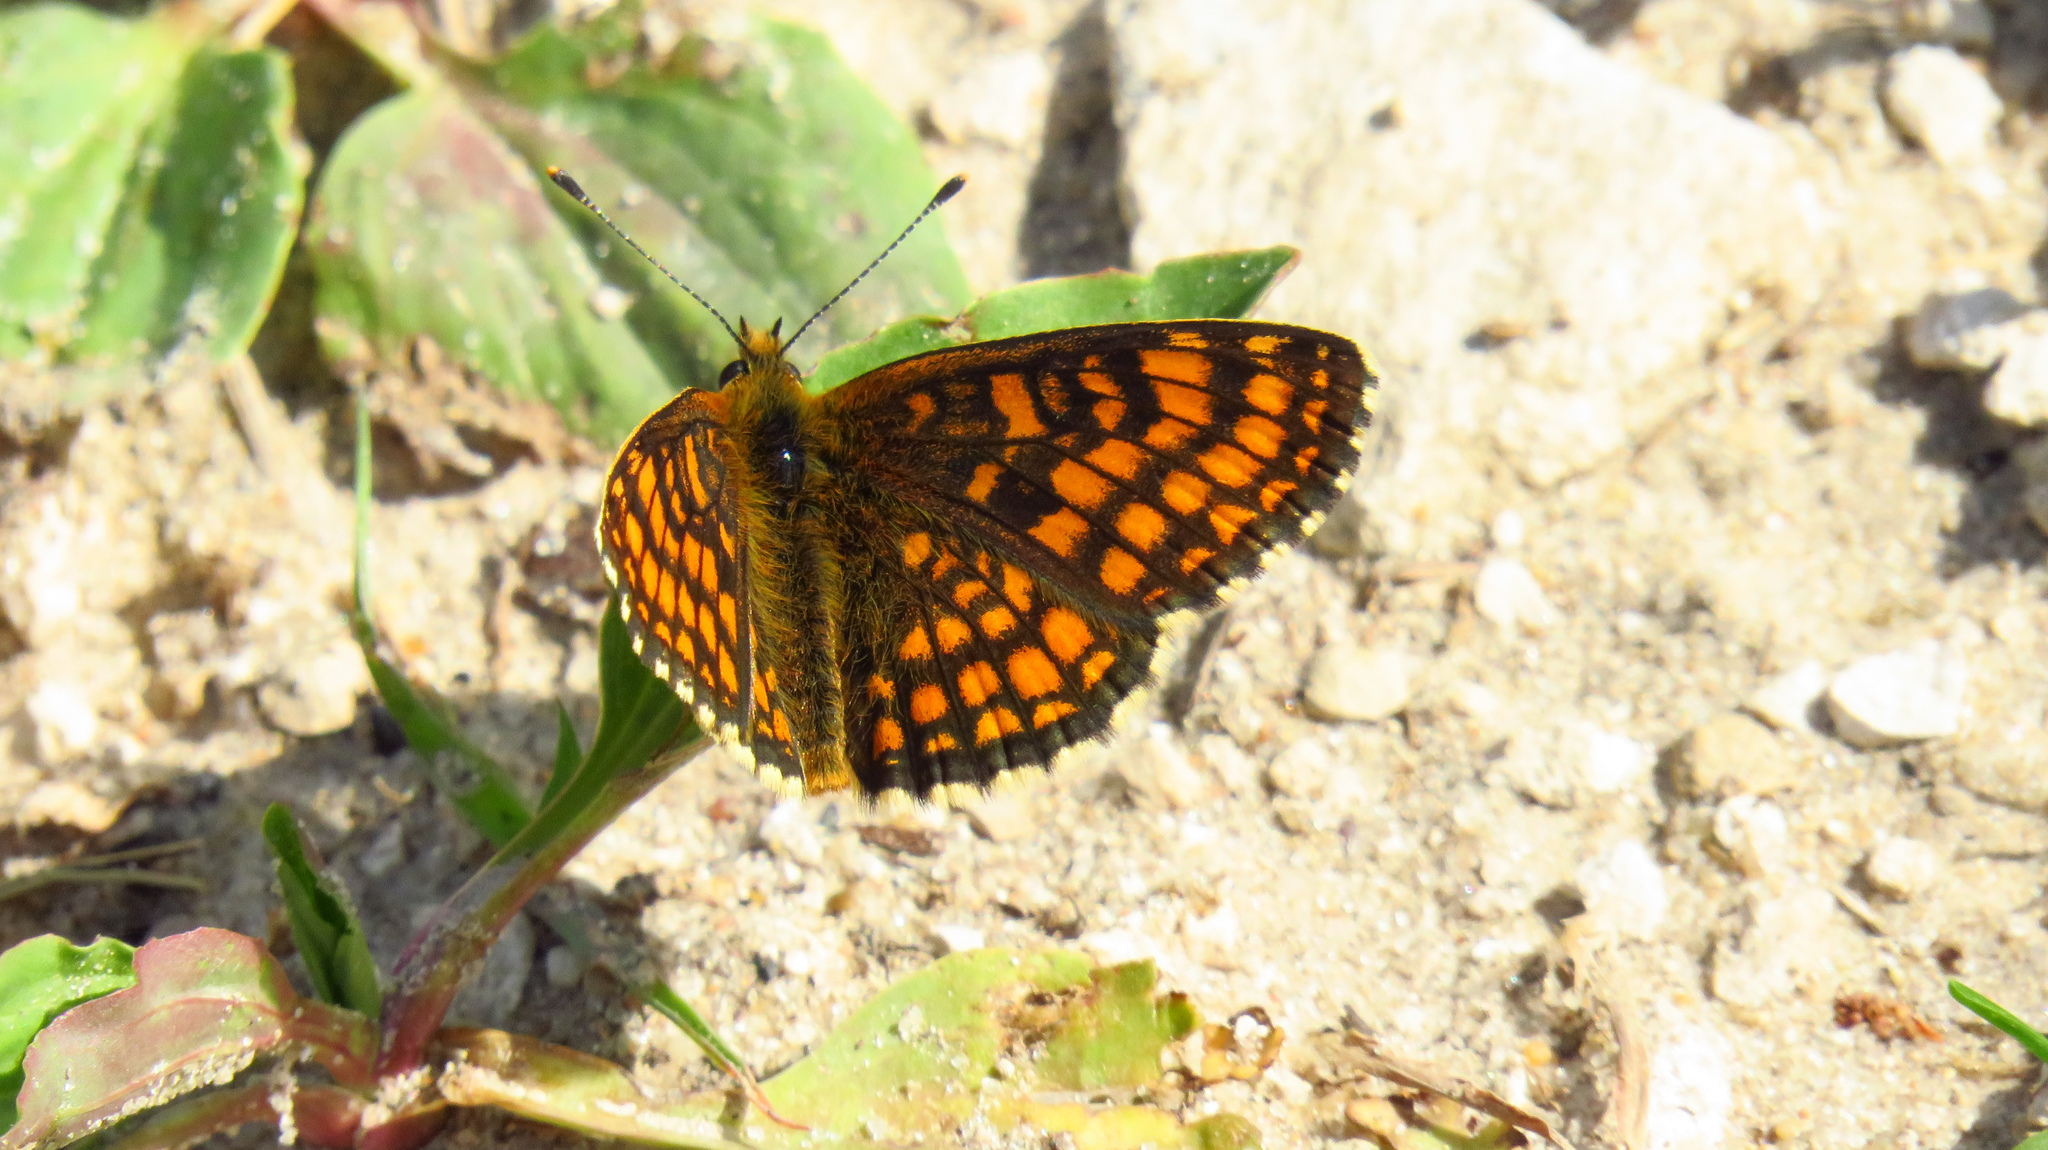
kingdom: Animalia
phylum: Arthropoda
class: Insecta
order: Lepidoptera
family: Nymphalidae
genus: Melitaea
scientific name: Melitaea athalia
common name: Heath fritillary
